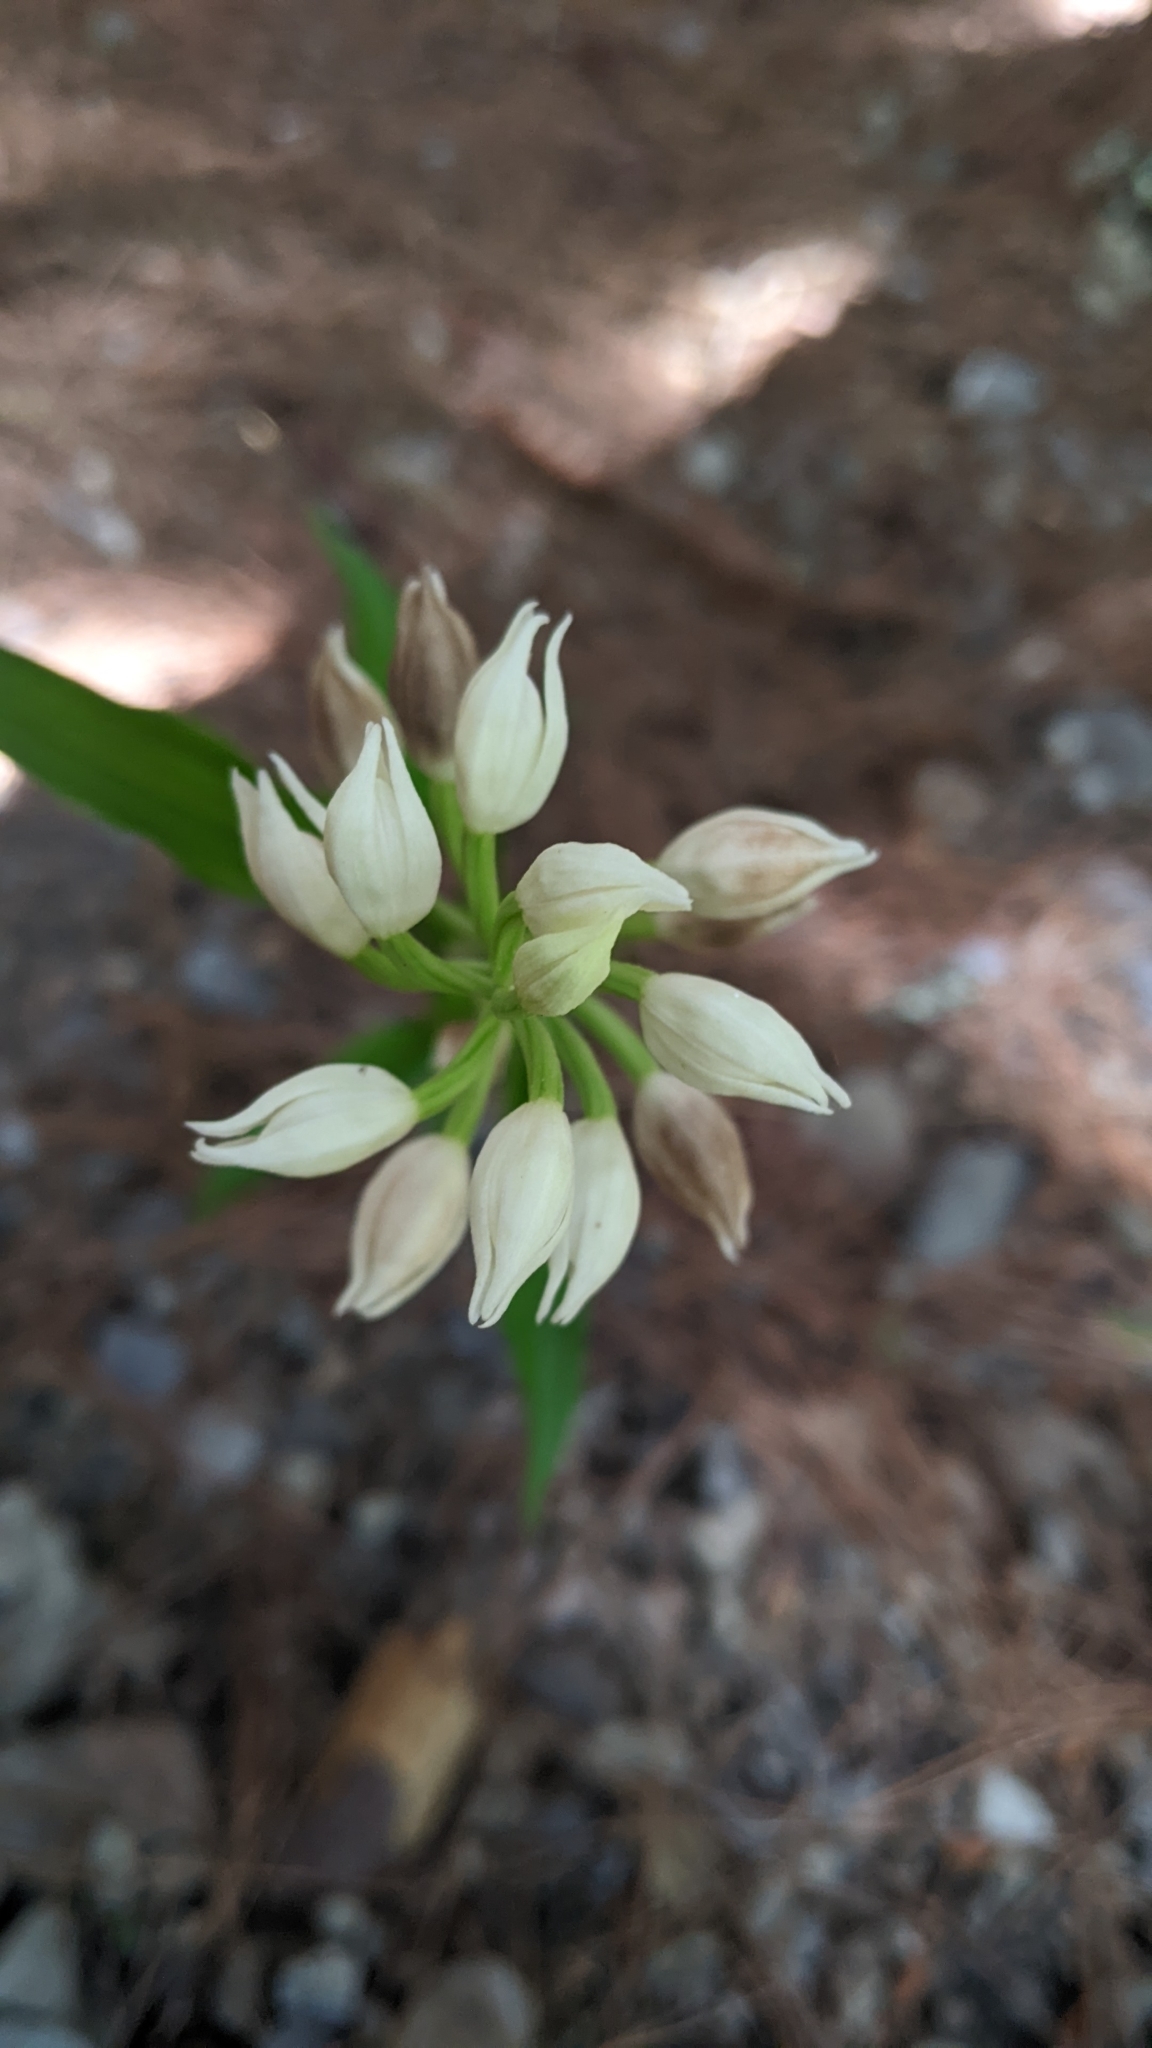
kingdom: Plantae
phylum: Tracheophyta
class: Liliopsida
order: Asparagales
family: Orchidaceae
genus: Cephalanthera
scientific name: Cephalanthera longifolia
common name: Narrow-leaved helleborine
